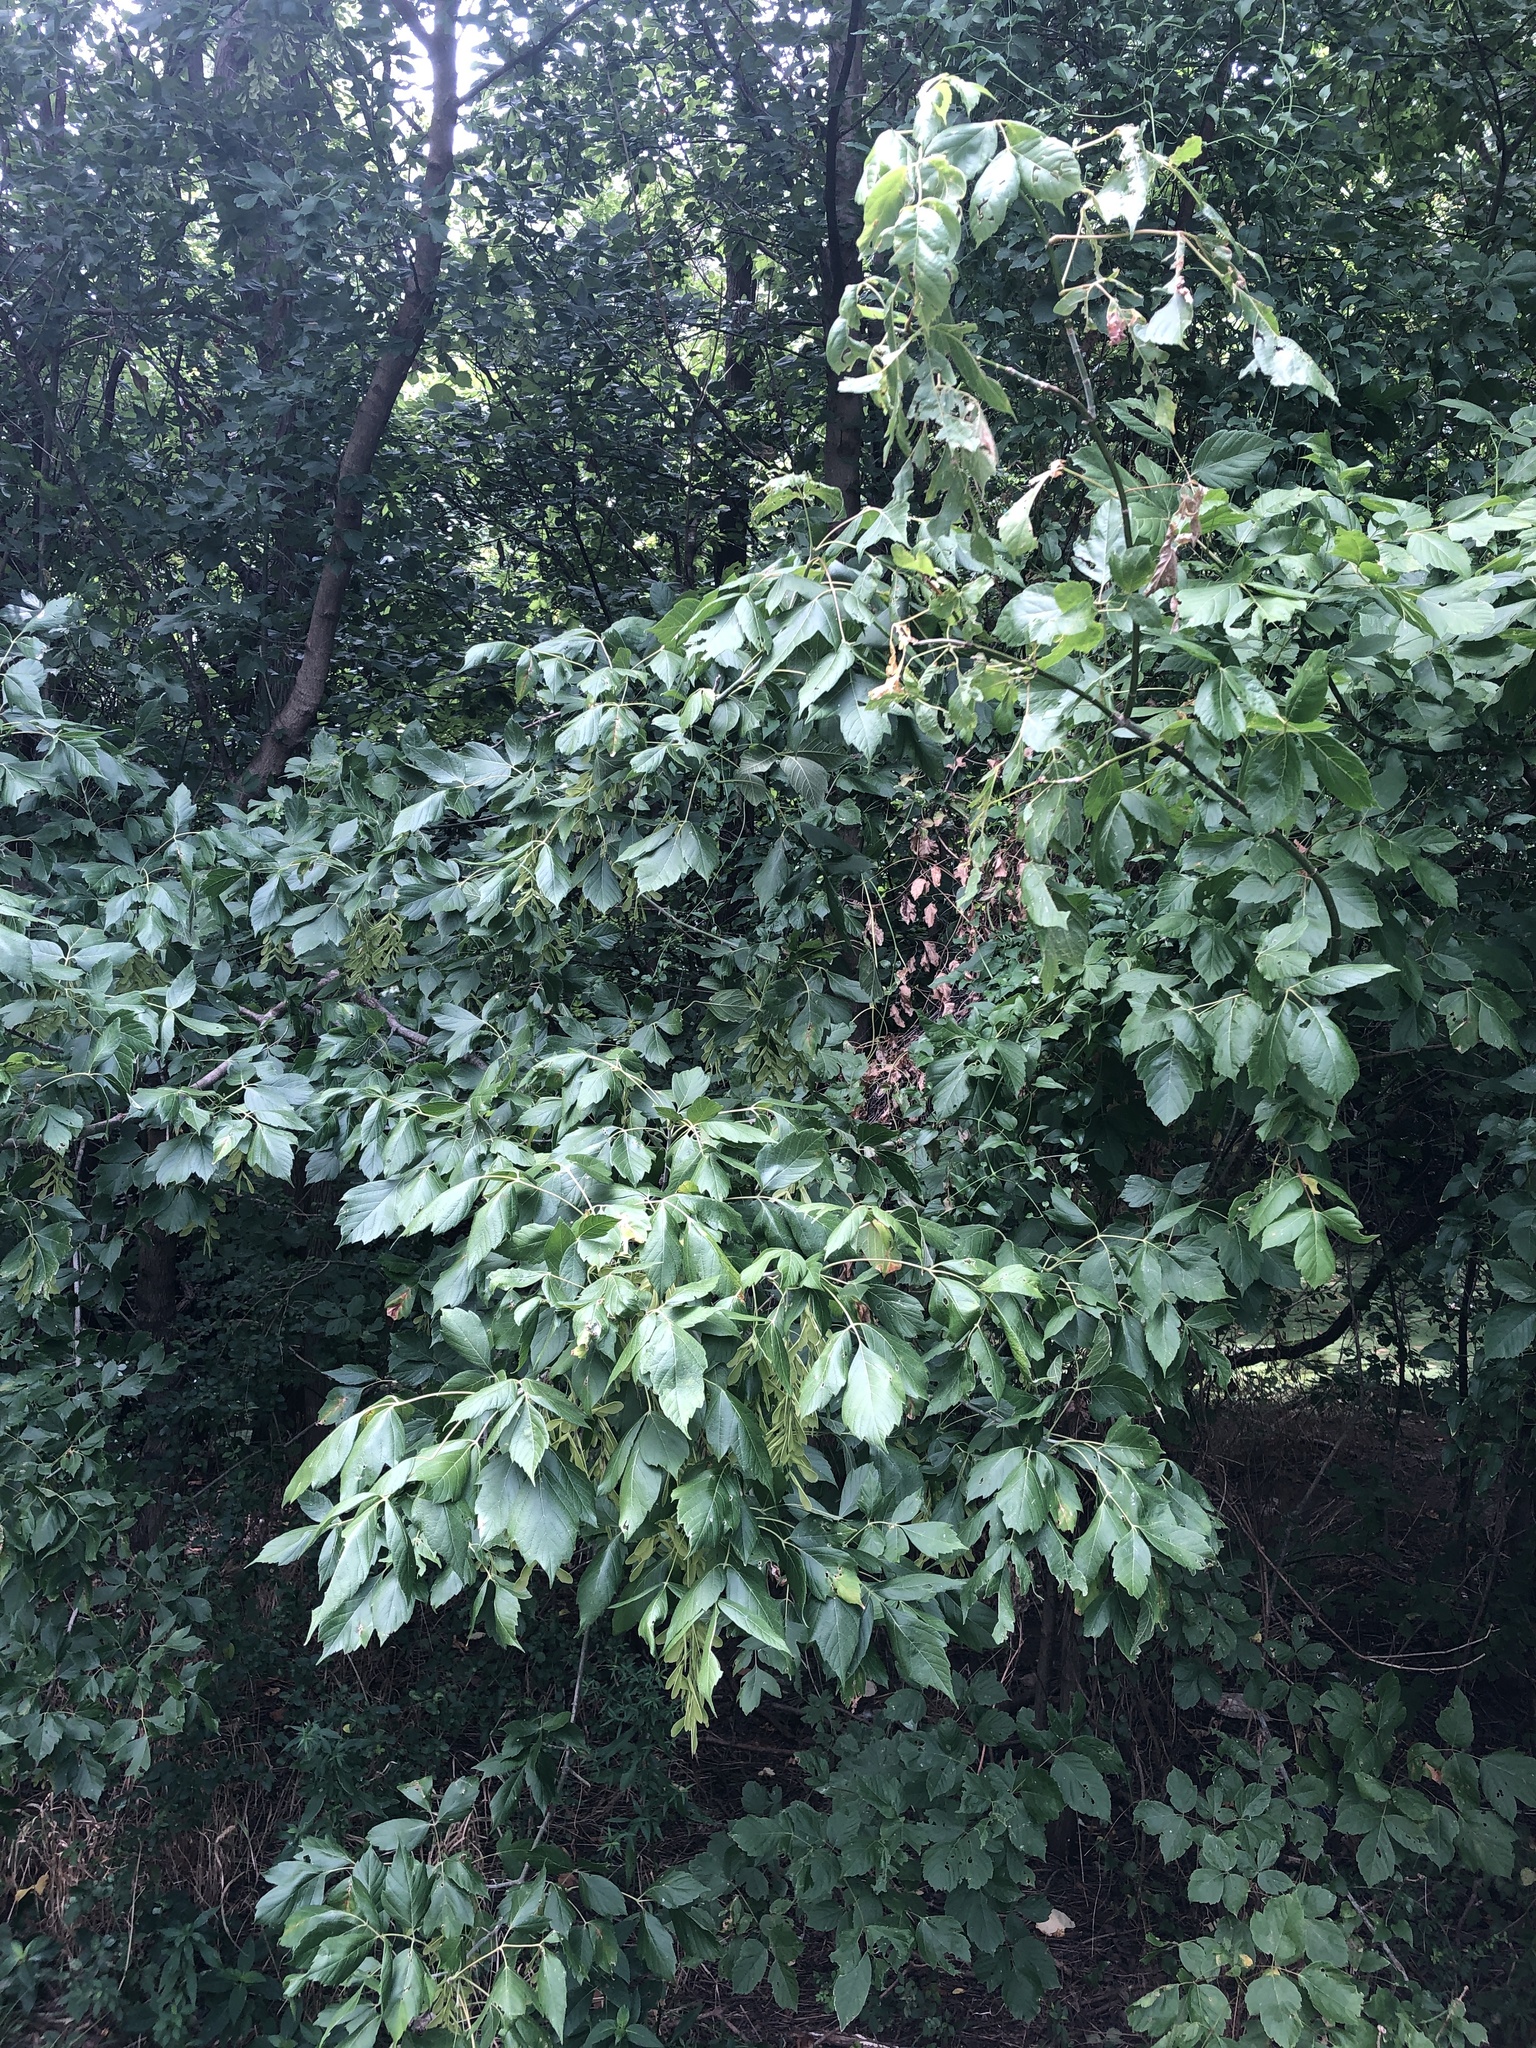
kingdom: Plantae
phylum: Tracheophyta
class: Magnoliopsida
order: Sapindales
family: Sapindaceae
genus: Acer
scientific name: Acer negundo
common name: Ashleaf maple
